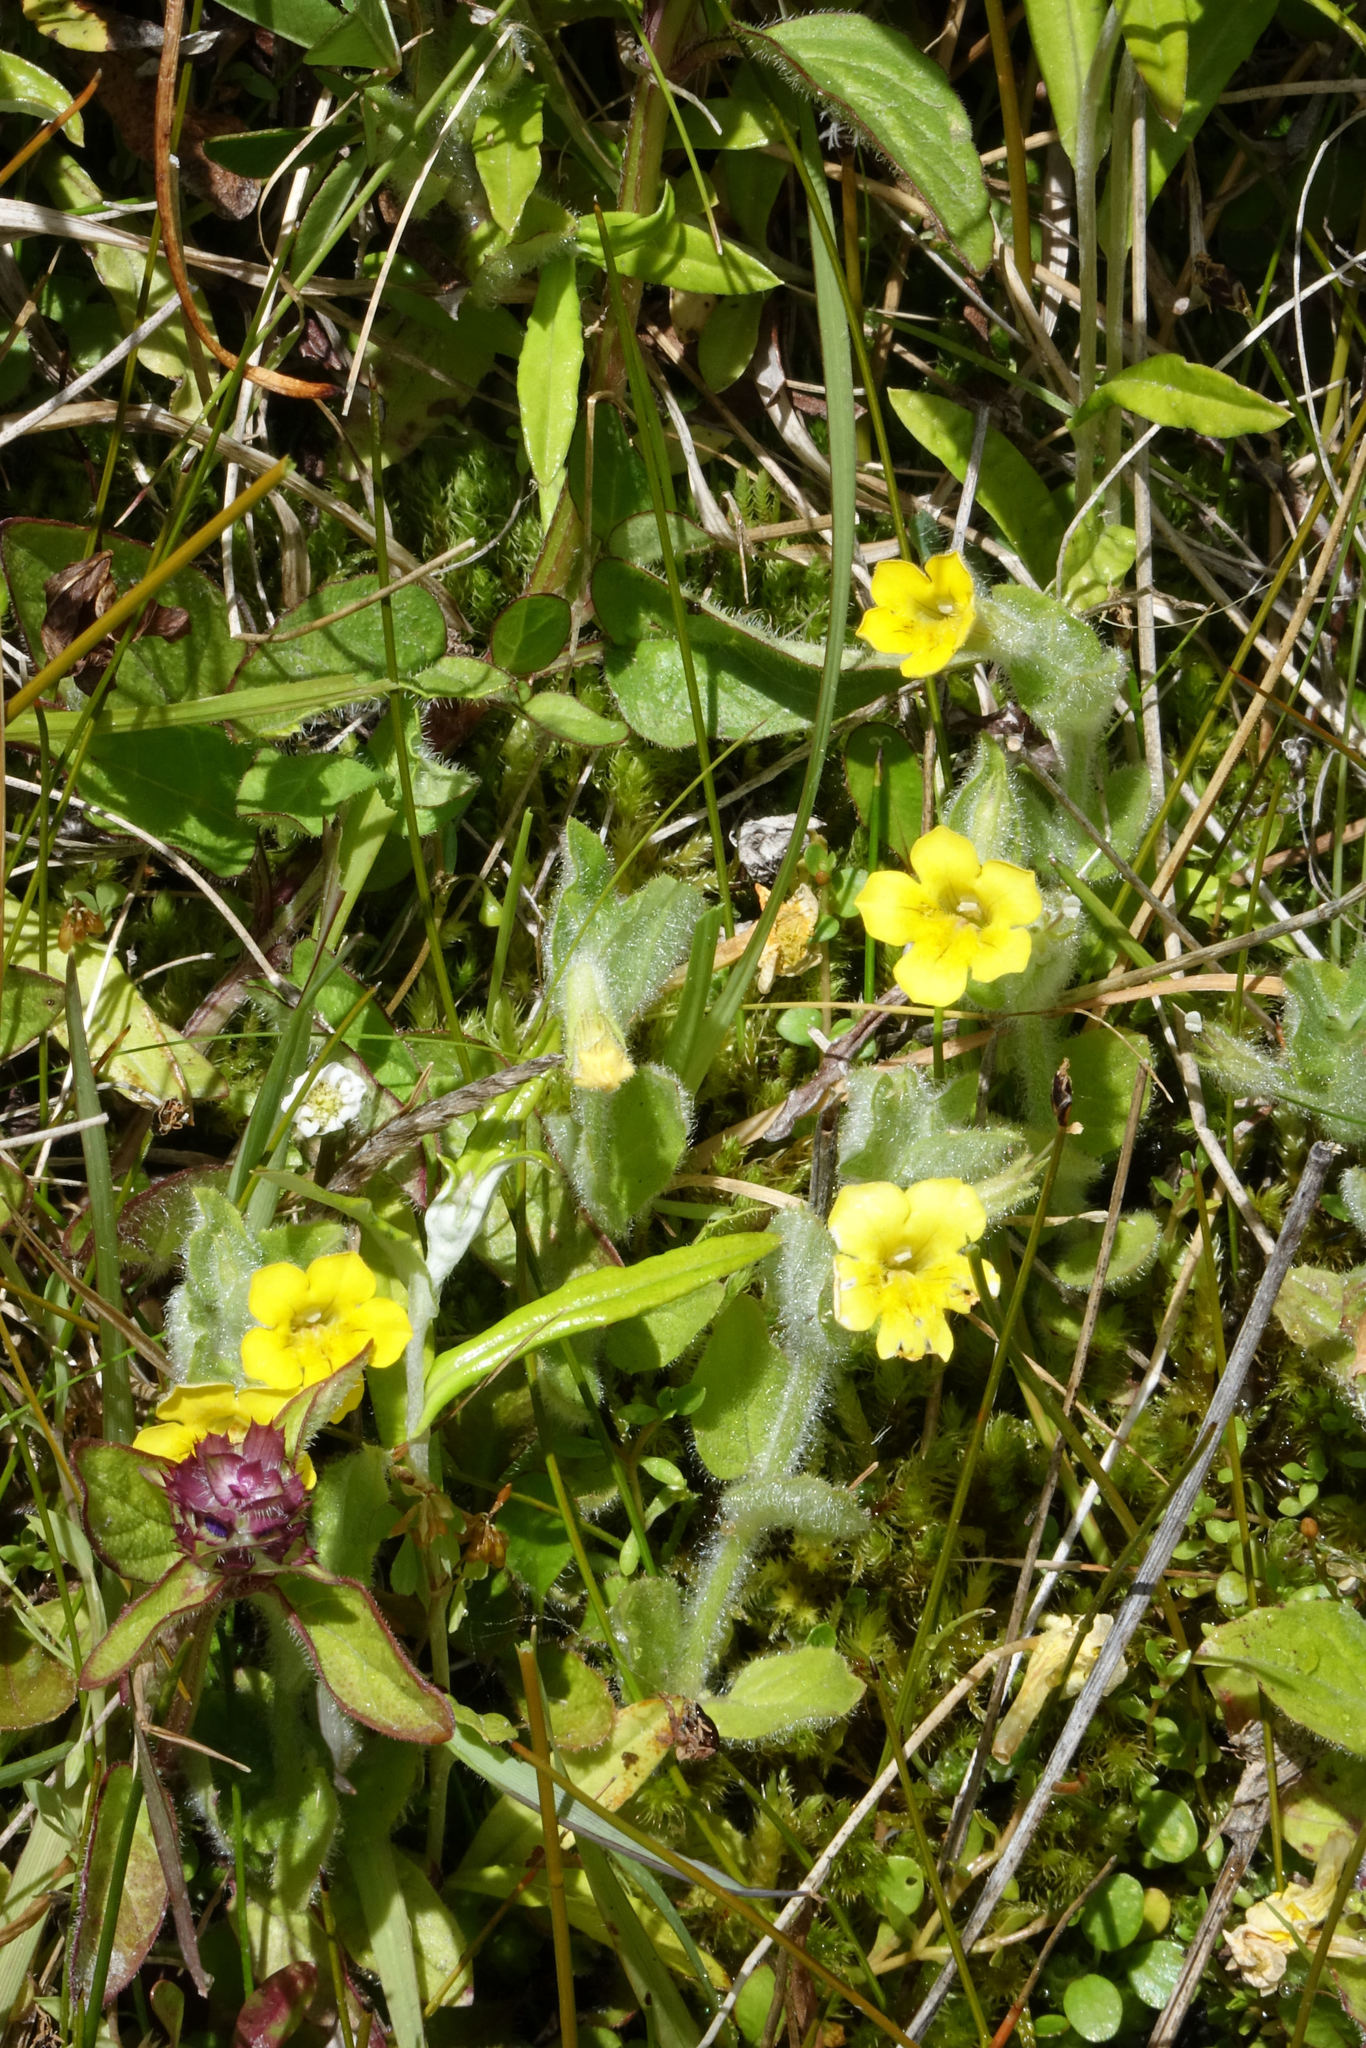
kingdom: Plantae
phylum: Tracheophyta
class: Magnoliopsida
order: Lamiales
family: Phrymaceae
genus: Erythranthe
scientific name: Erythranthe moschata
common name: Muskflower
